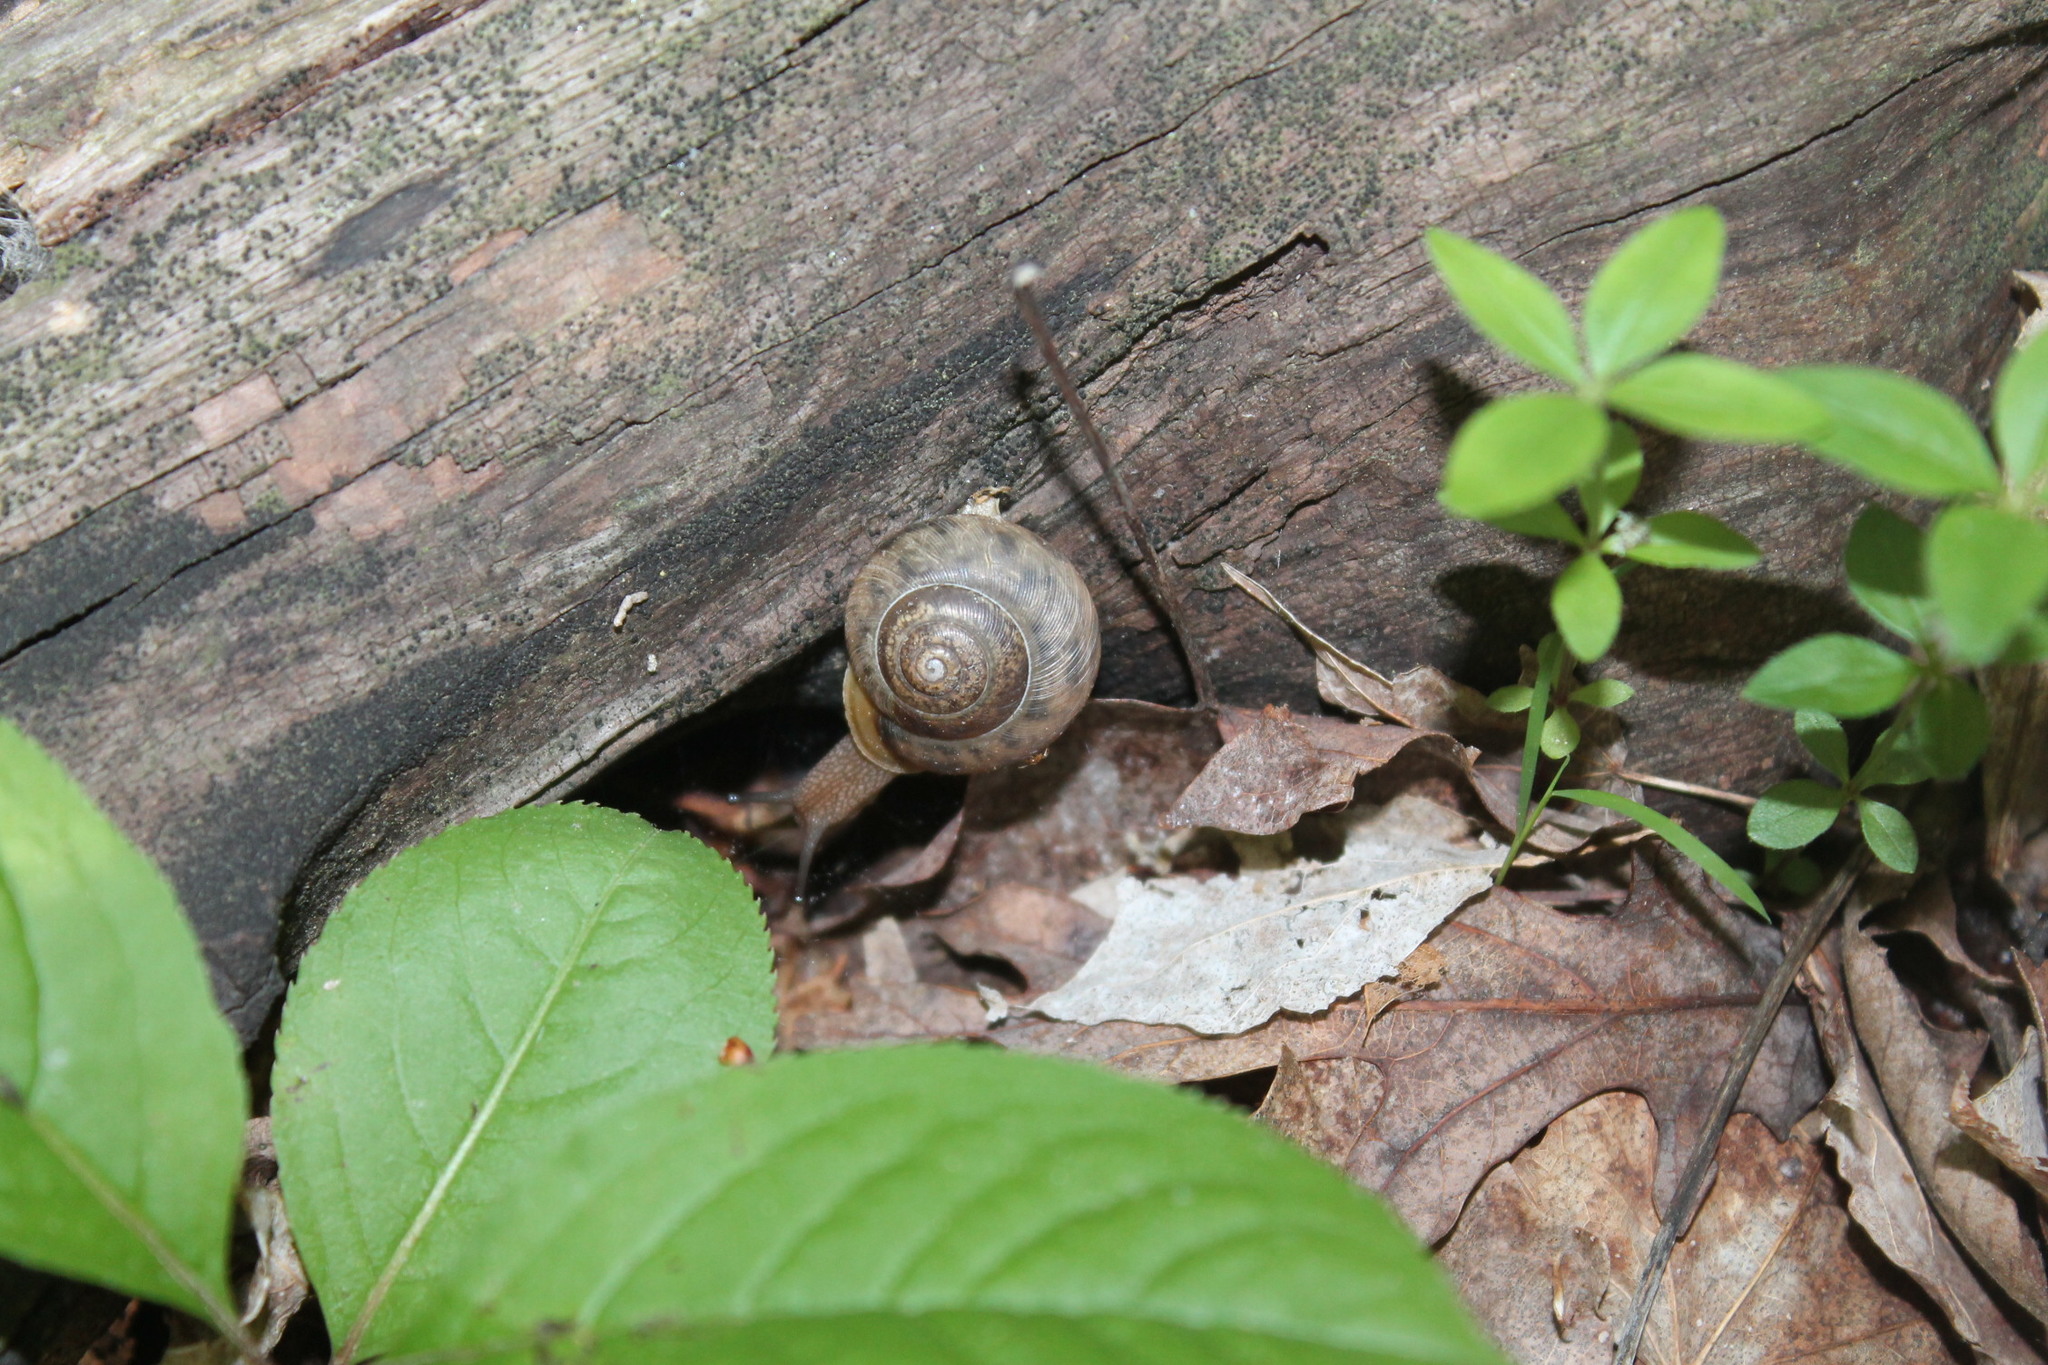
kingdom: Animalia
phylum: Mollusca
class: Gastropoda
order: Stylommatophora
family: Polygyridae
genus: Neohelix
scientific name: Neohelix albolabris
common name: Eastern whitelip
